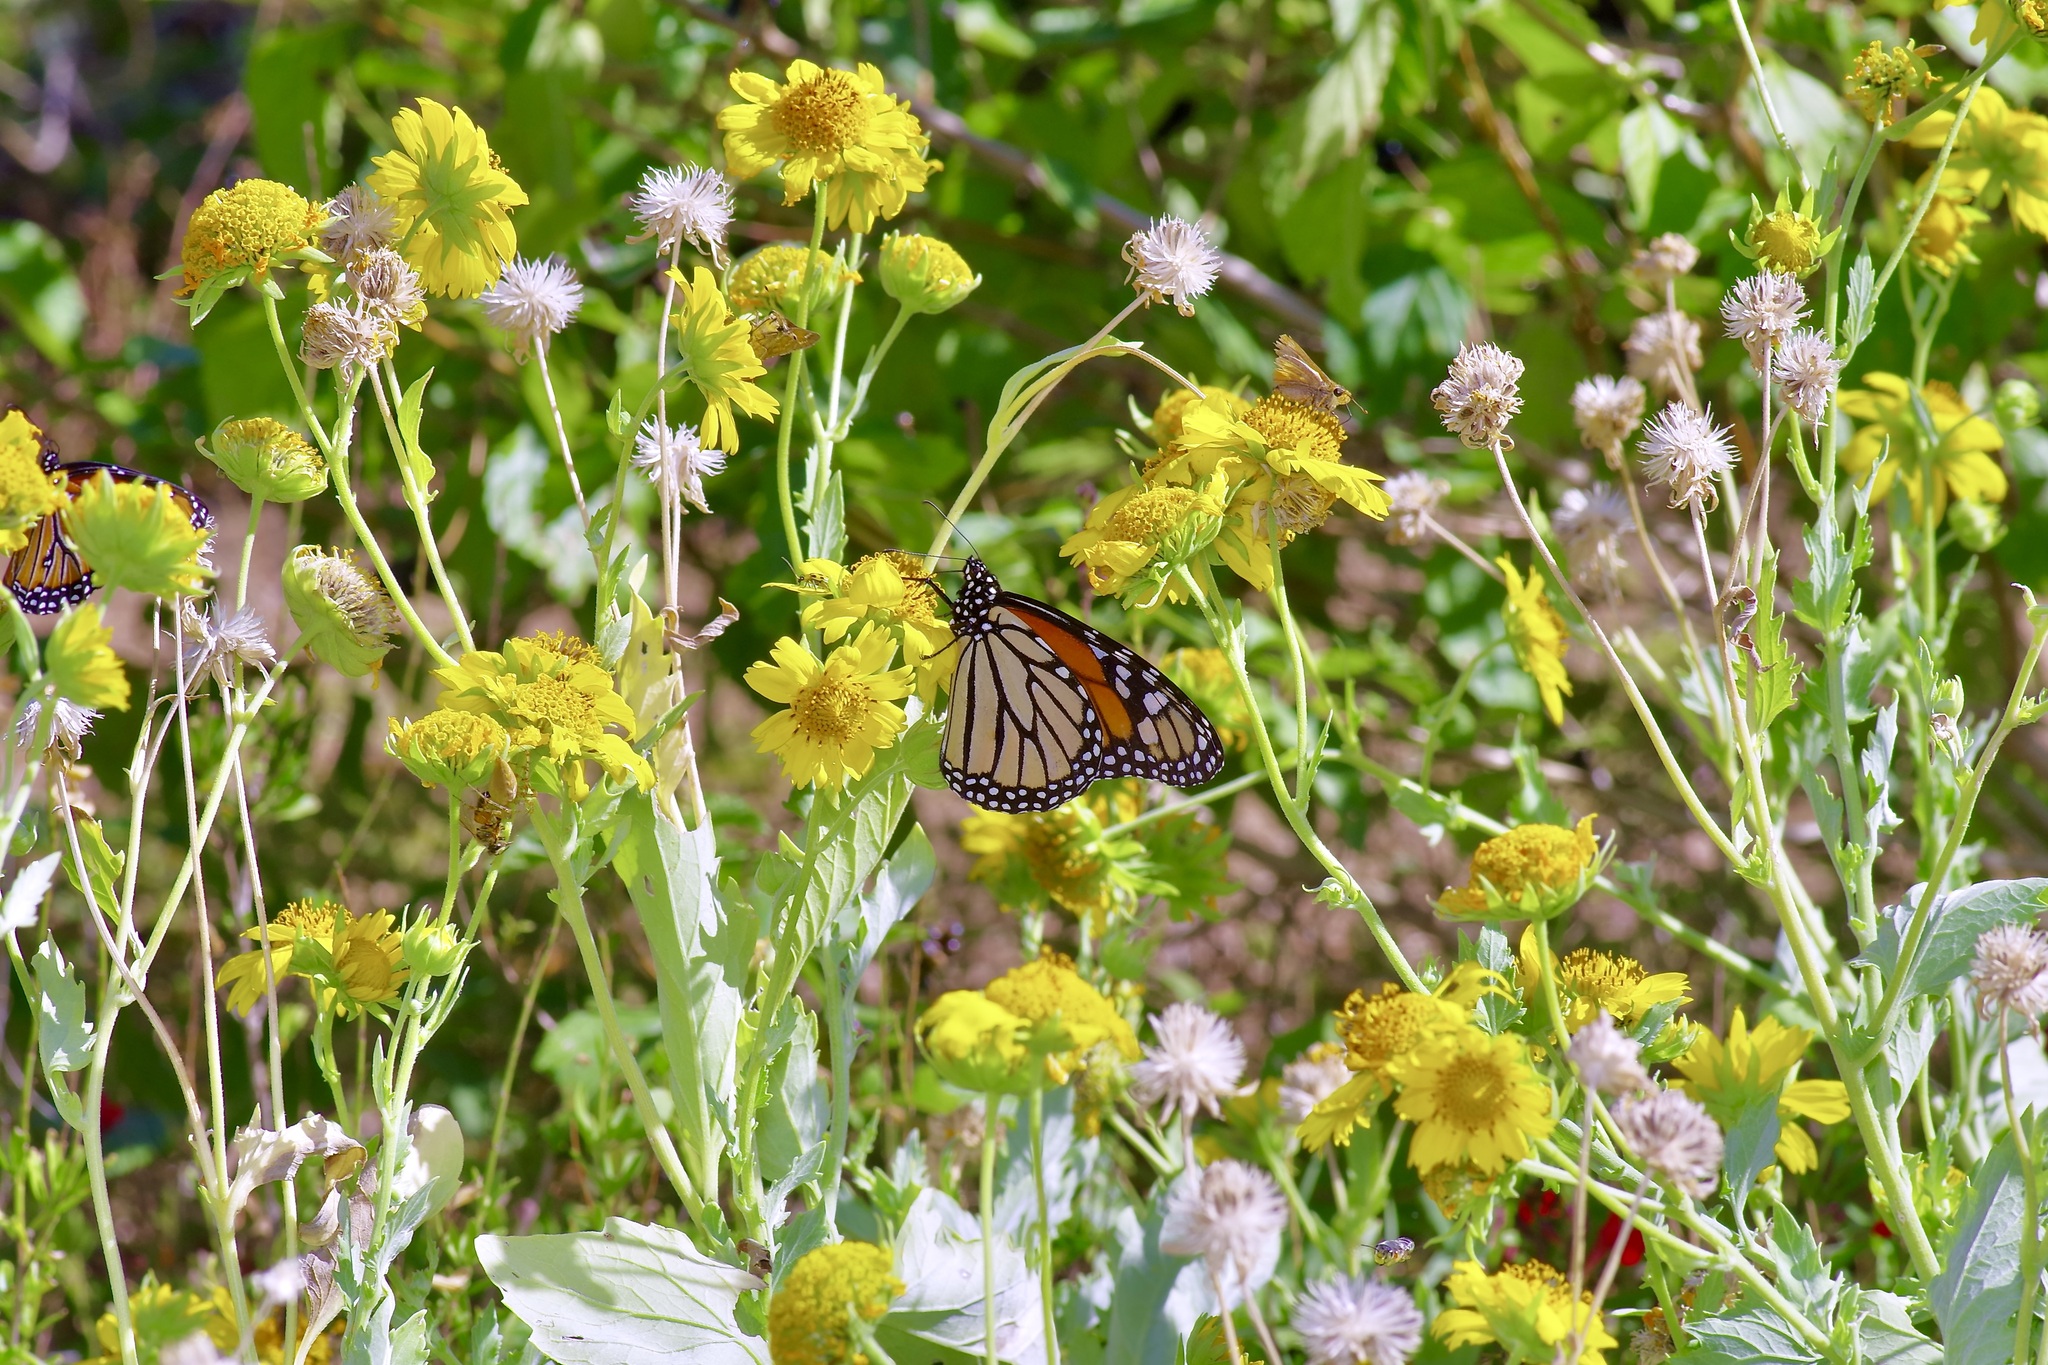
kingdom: Animalia
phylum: Arthropoda
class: Insecta
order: Lepidoptera
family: Nymphalidae
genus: Danaus
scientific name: Danaus plexippus
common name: Monarch
